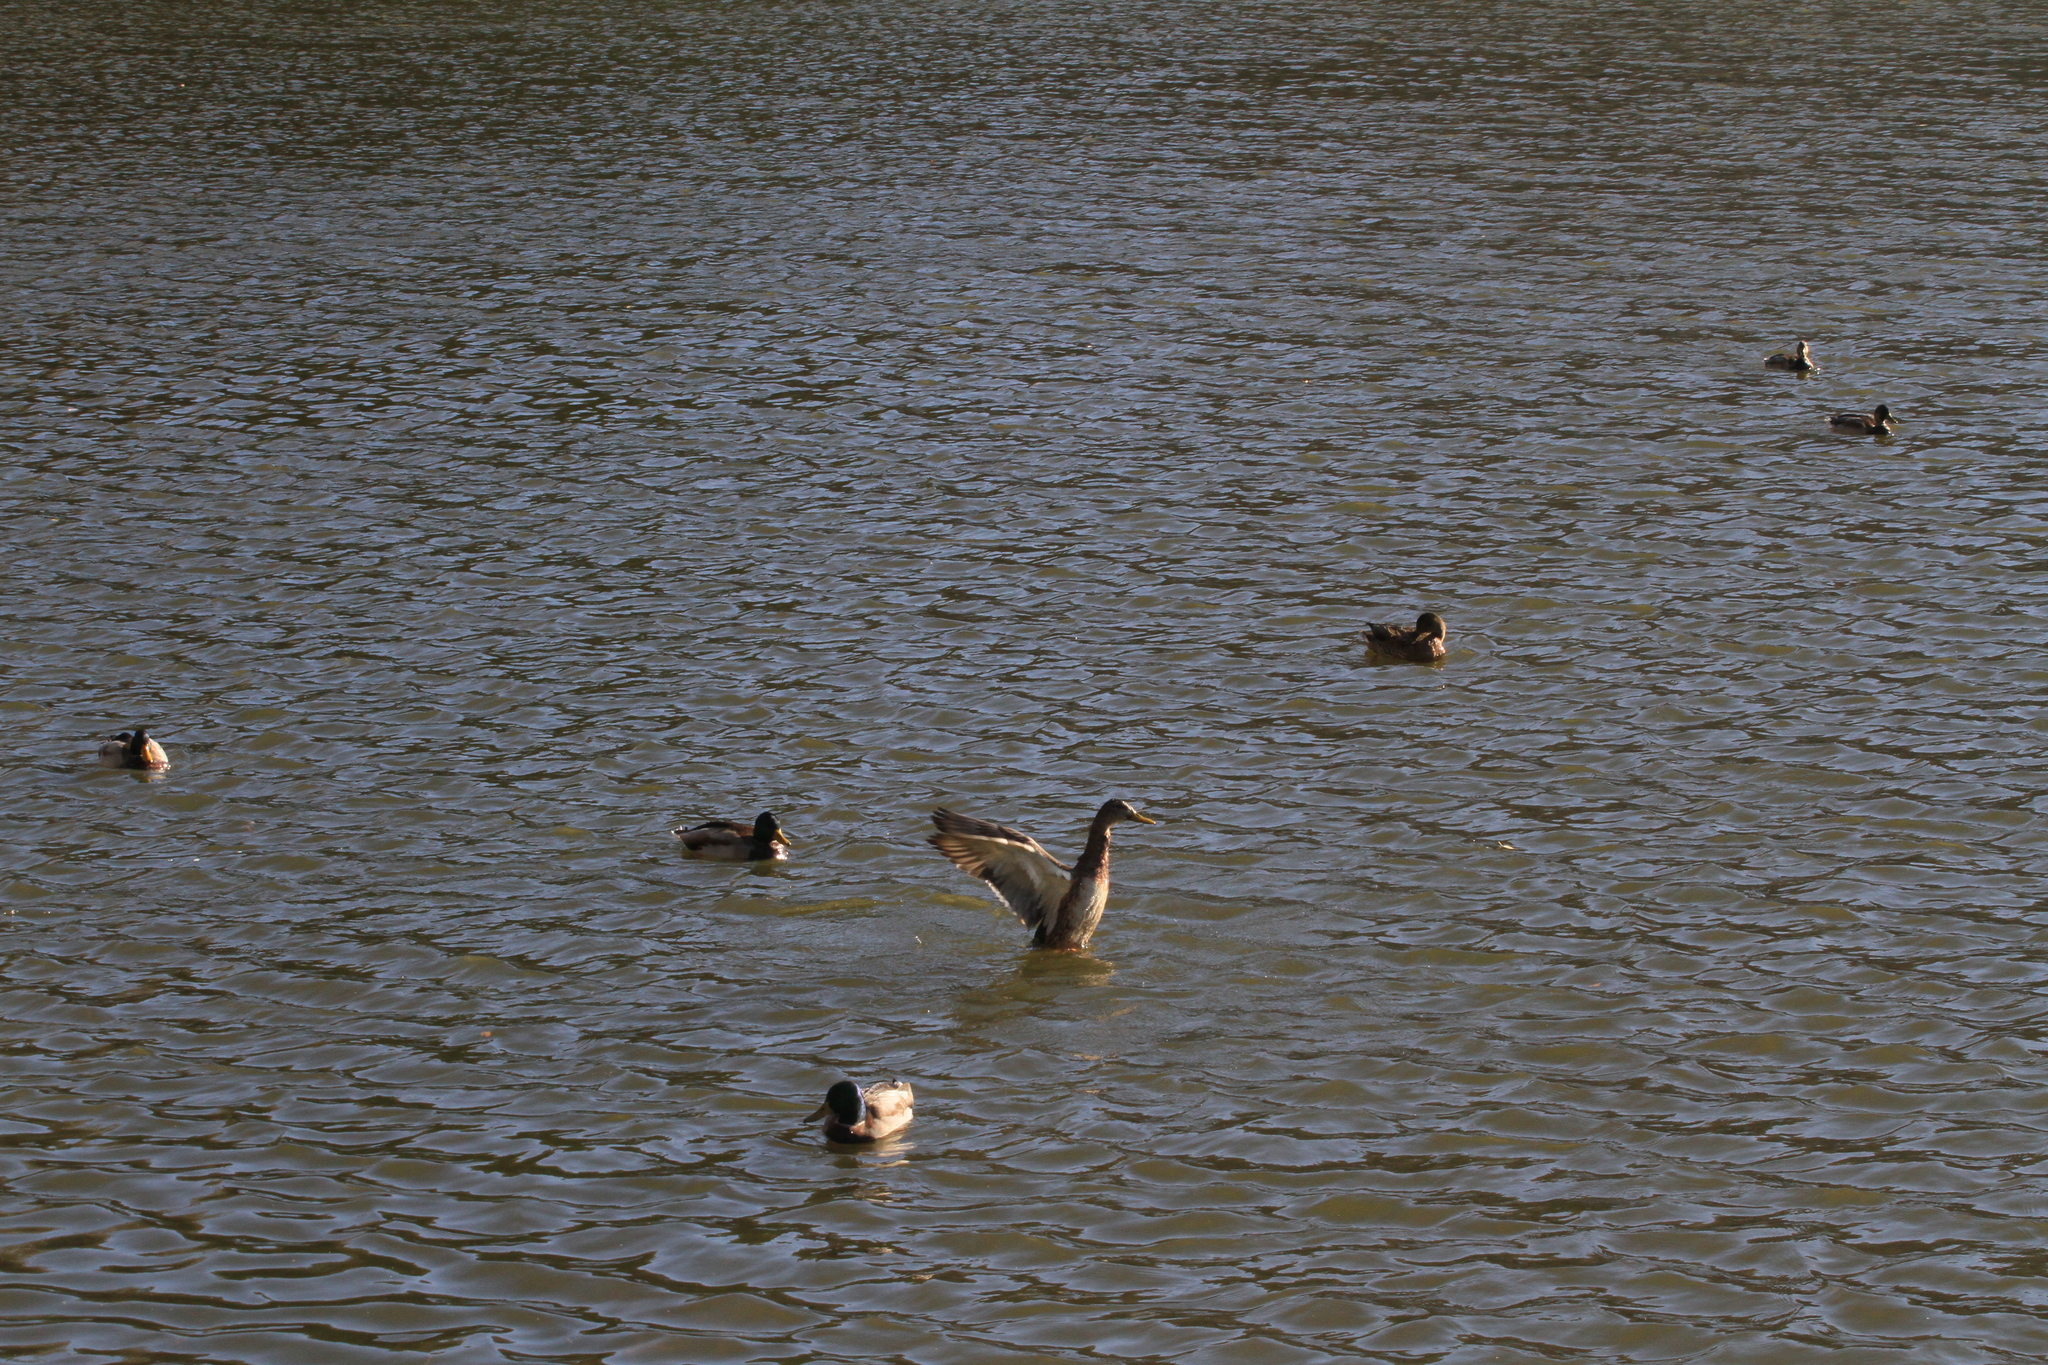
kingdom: Animalia
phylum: Chordata
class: Aves
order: Anseriformes
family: Anatidae
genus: Anas
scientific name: Anas platyrhynchos
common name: Mallard
